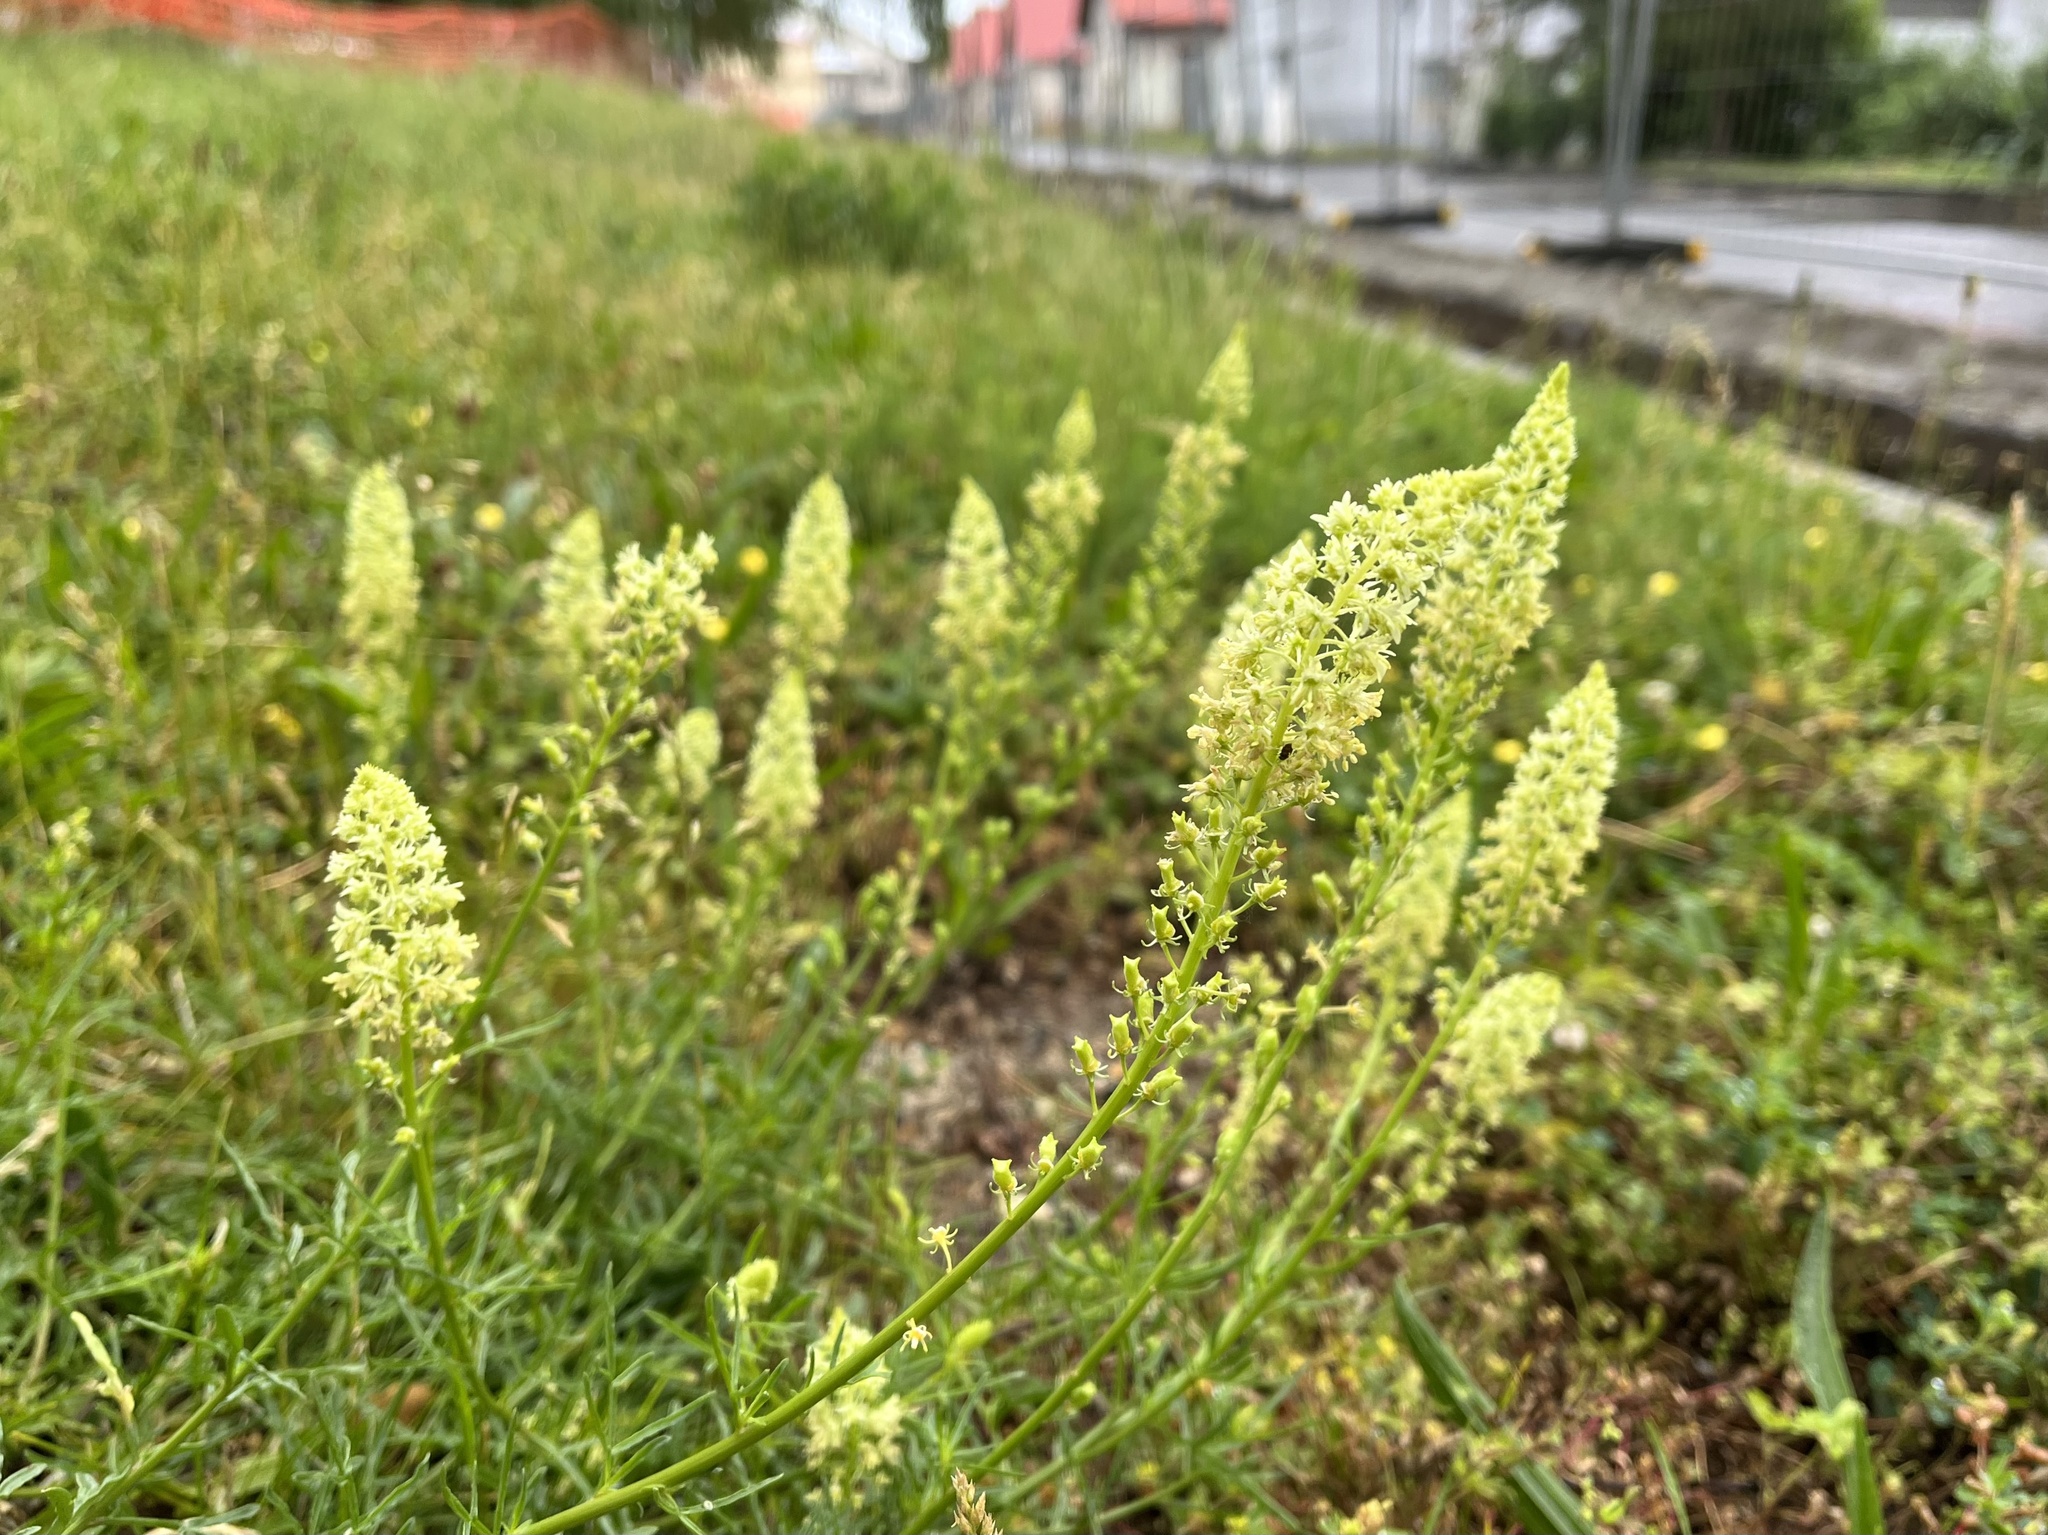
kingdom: Plantae
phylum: Tracheophyta
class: Magnoliopsida
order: Brassicales
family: Resedaceae
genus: Reseda
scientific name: Reseda lutea
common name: Wild mignonette
